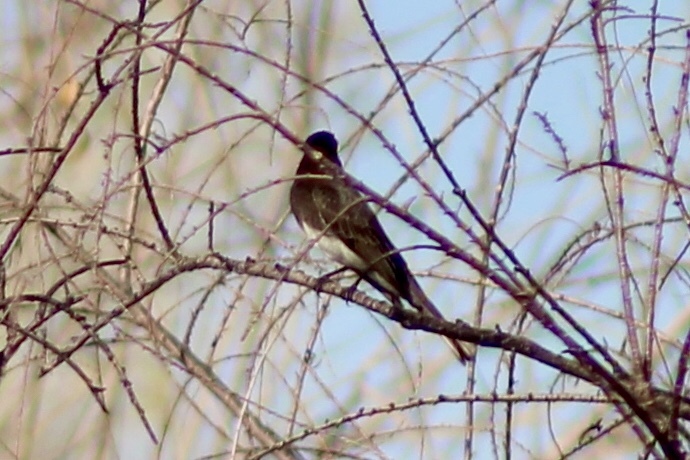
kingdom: Animalia
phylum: Chordata
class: Aves
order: Passeriformes
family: Tyrannidae
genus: Sayornis
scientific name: Sayornis nigricans
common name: Black phoebe
